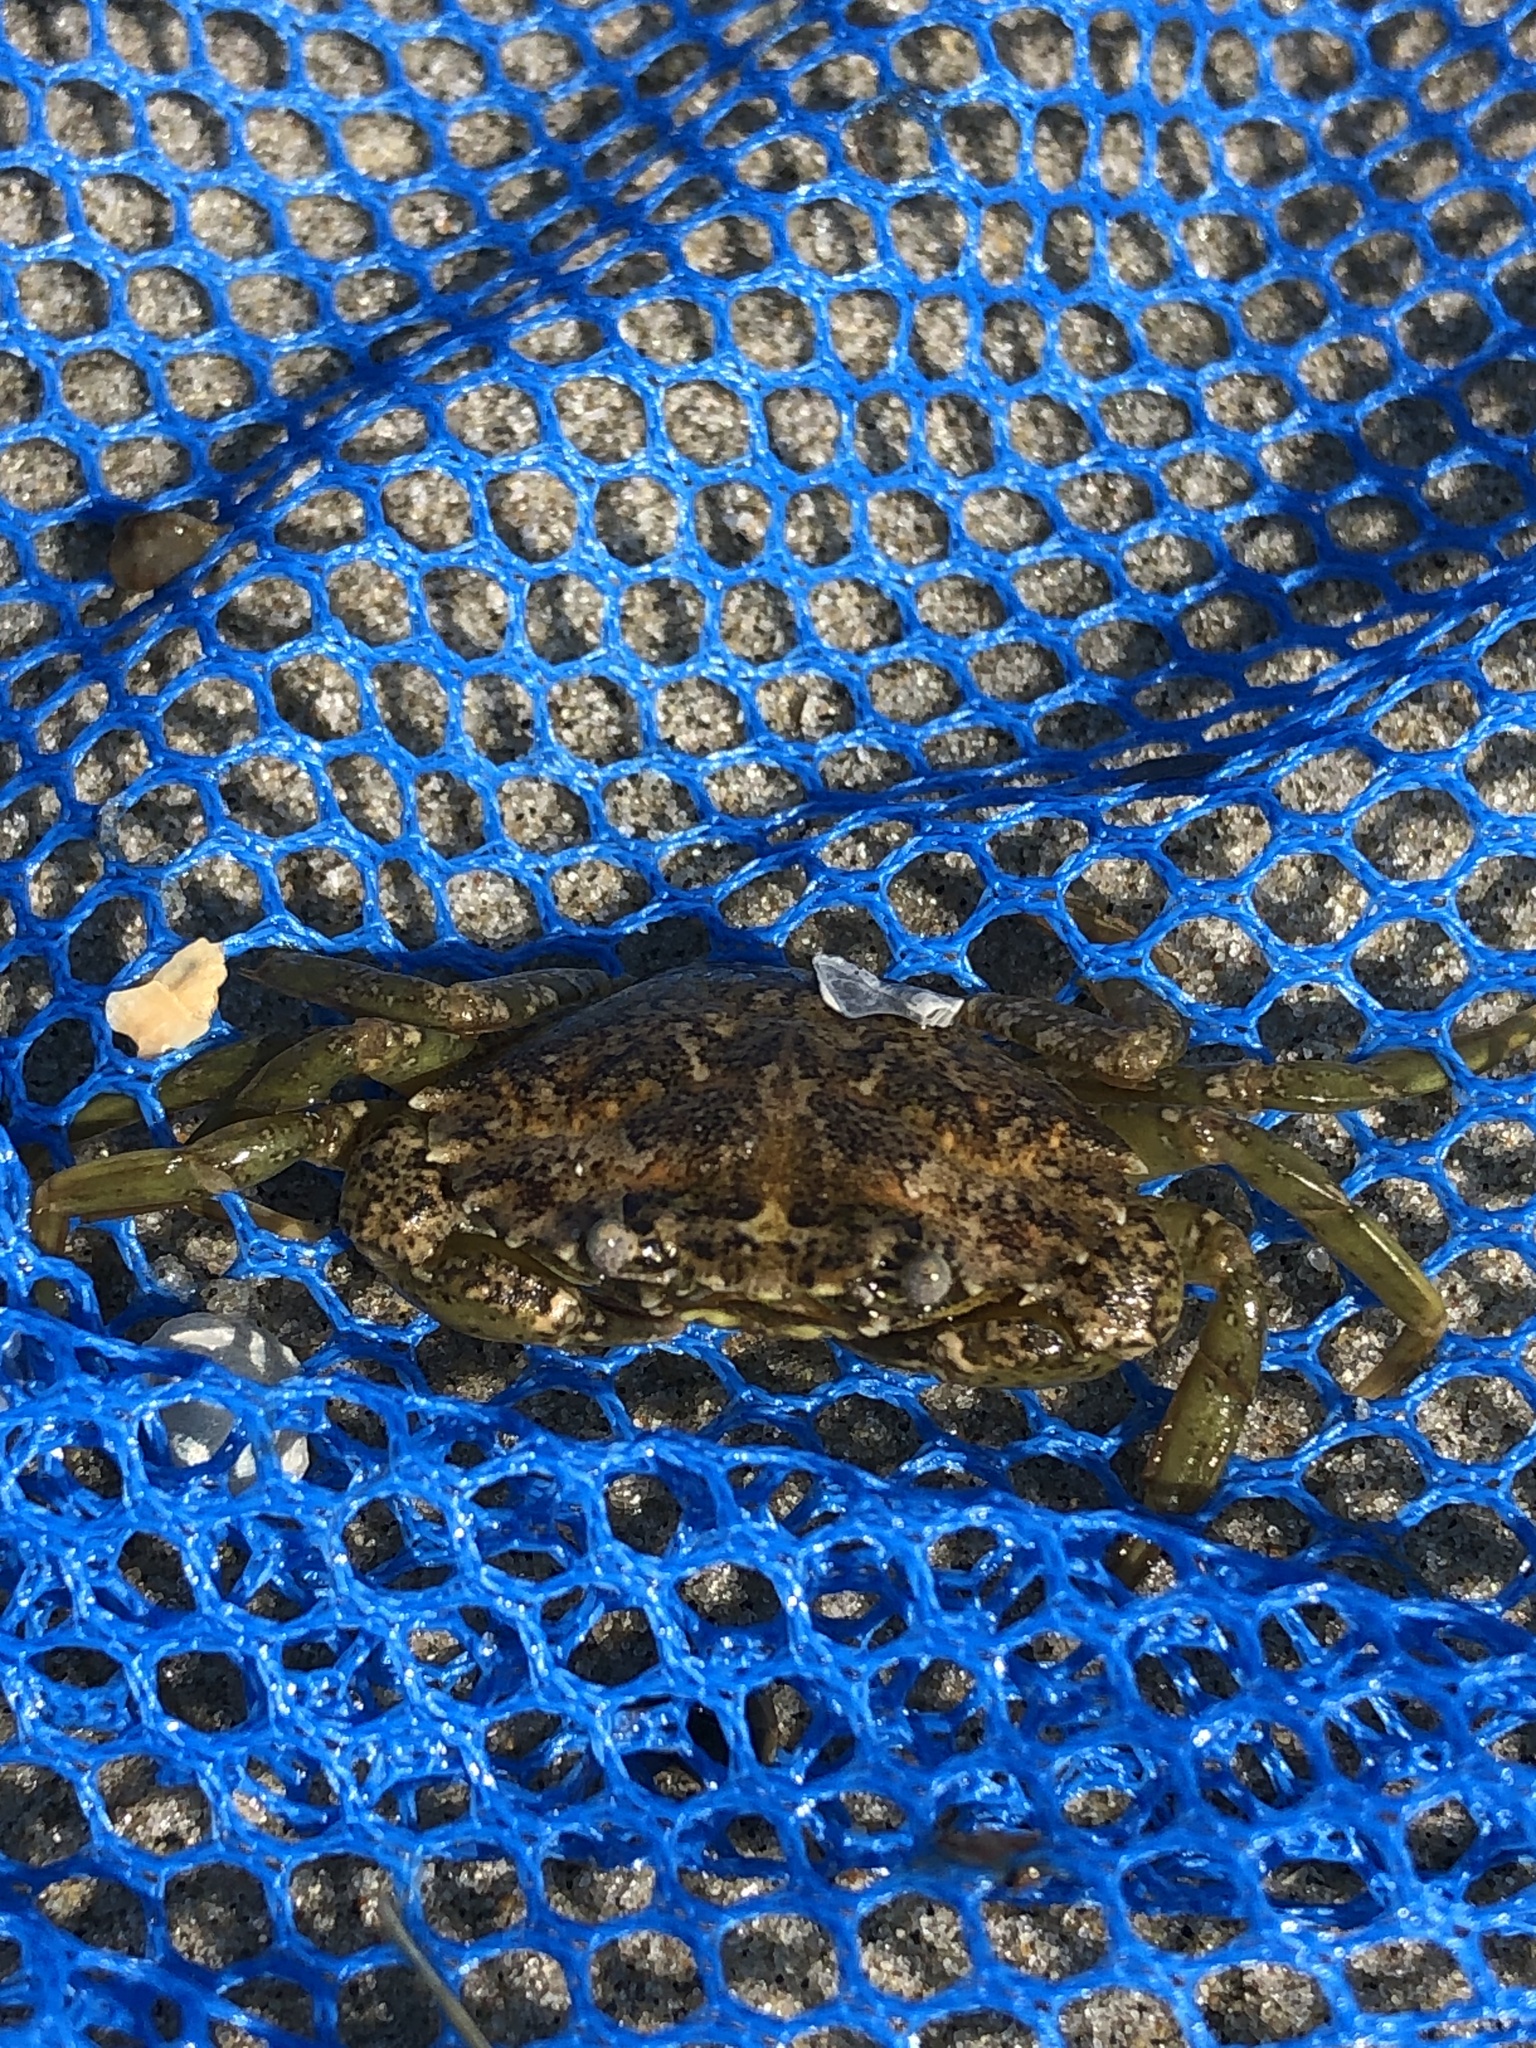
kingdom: Animalia
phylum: Arthropoda
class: Malacostraca
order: Decapoda
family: Carcinidae
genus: Carcinus
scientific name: Carcinus maenas
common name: European green crab
